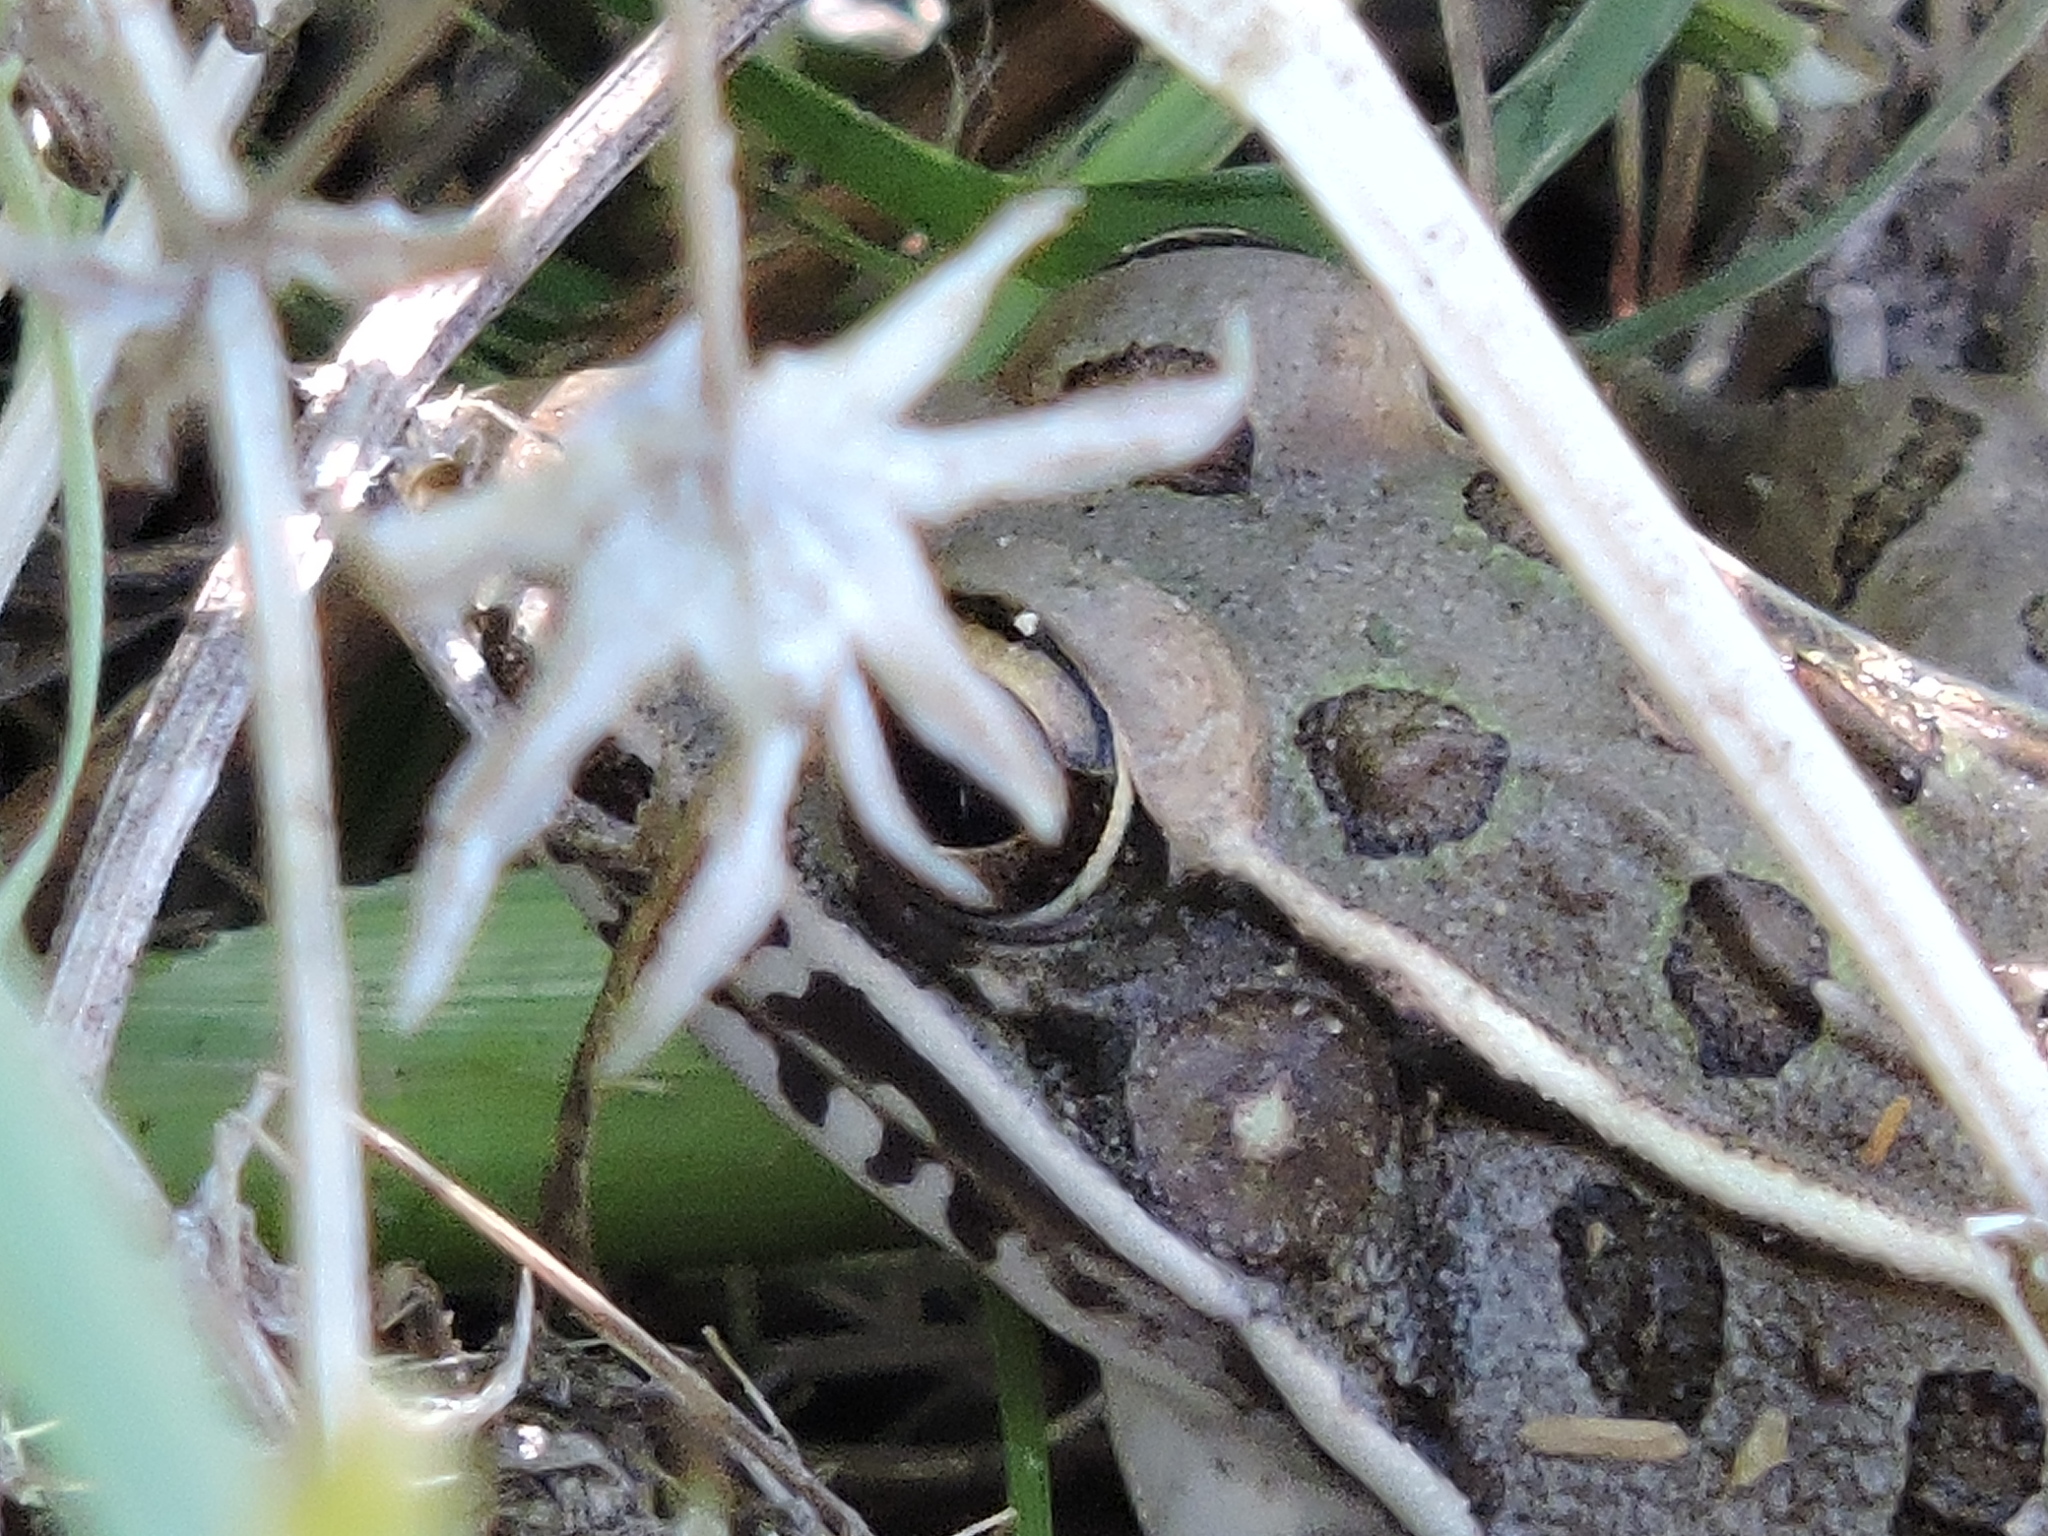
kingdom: Animalia
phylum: Chordata
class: Amphibia
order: Anura
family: Ranidae
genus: Lithobates
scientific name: Lithobates sphenocephalus
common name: Southern leopard frog
